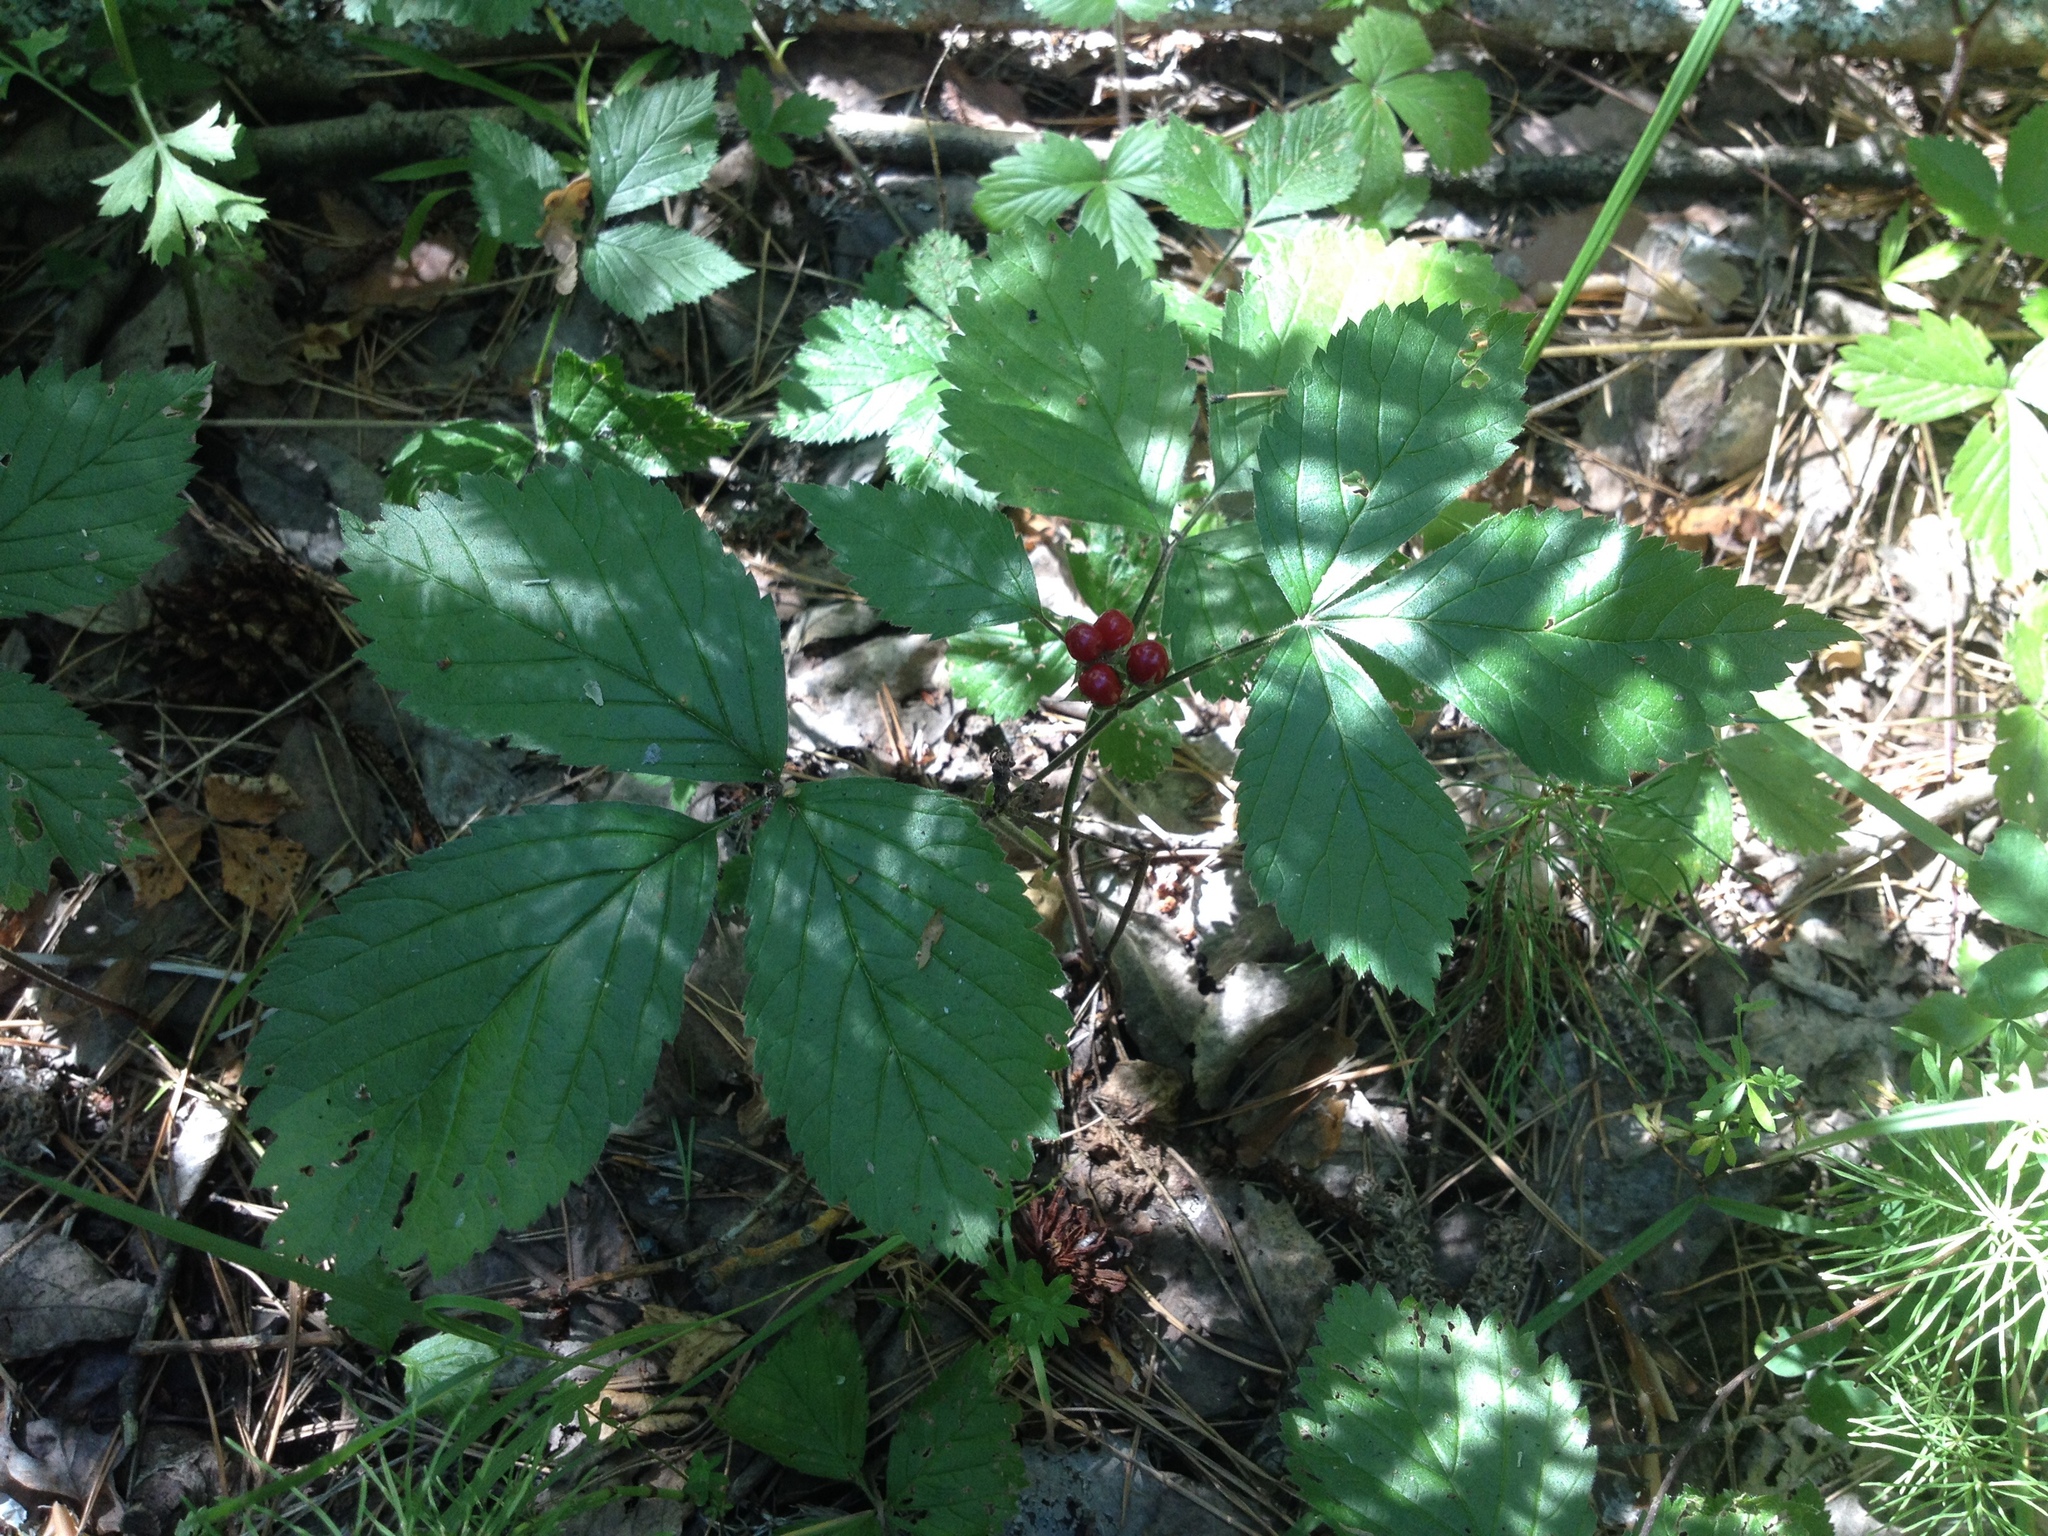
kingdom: Plantae
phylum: Tracheophyta
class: Magnoliopsida
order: Rosales
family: Rosaceae
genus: Rubus
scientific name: Rubus saxatilis
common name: Stone bramble
